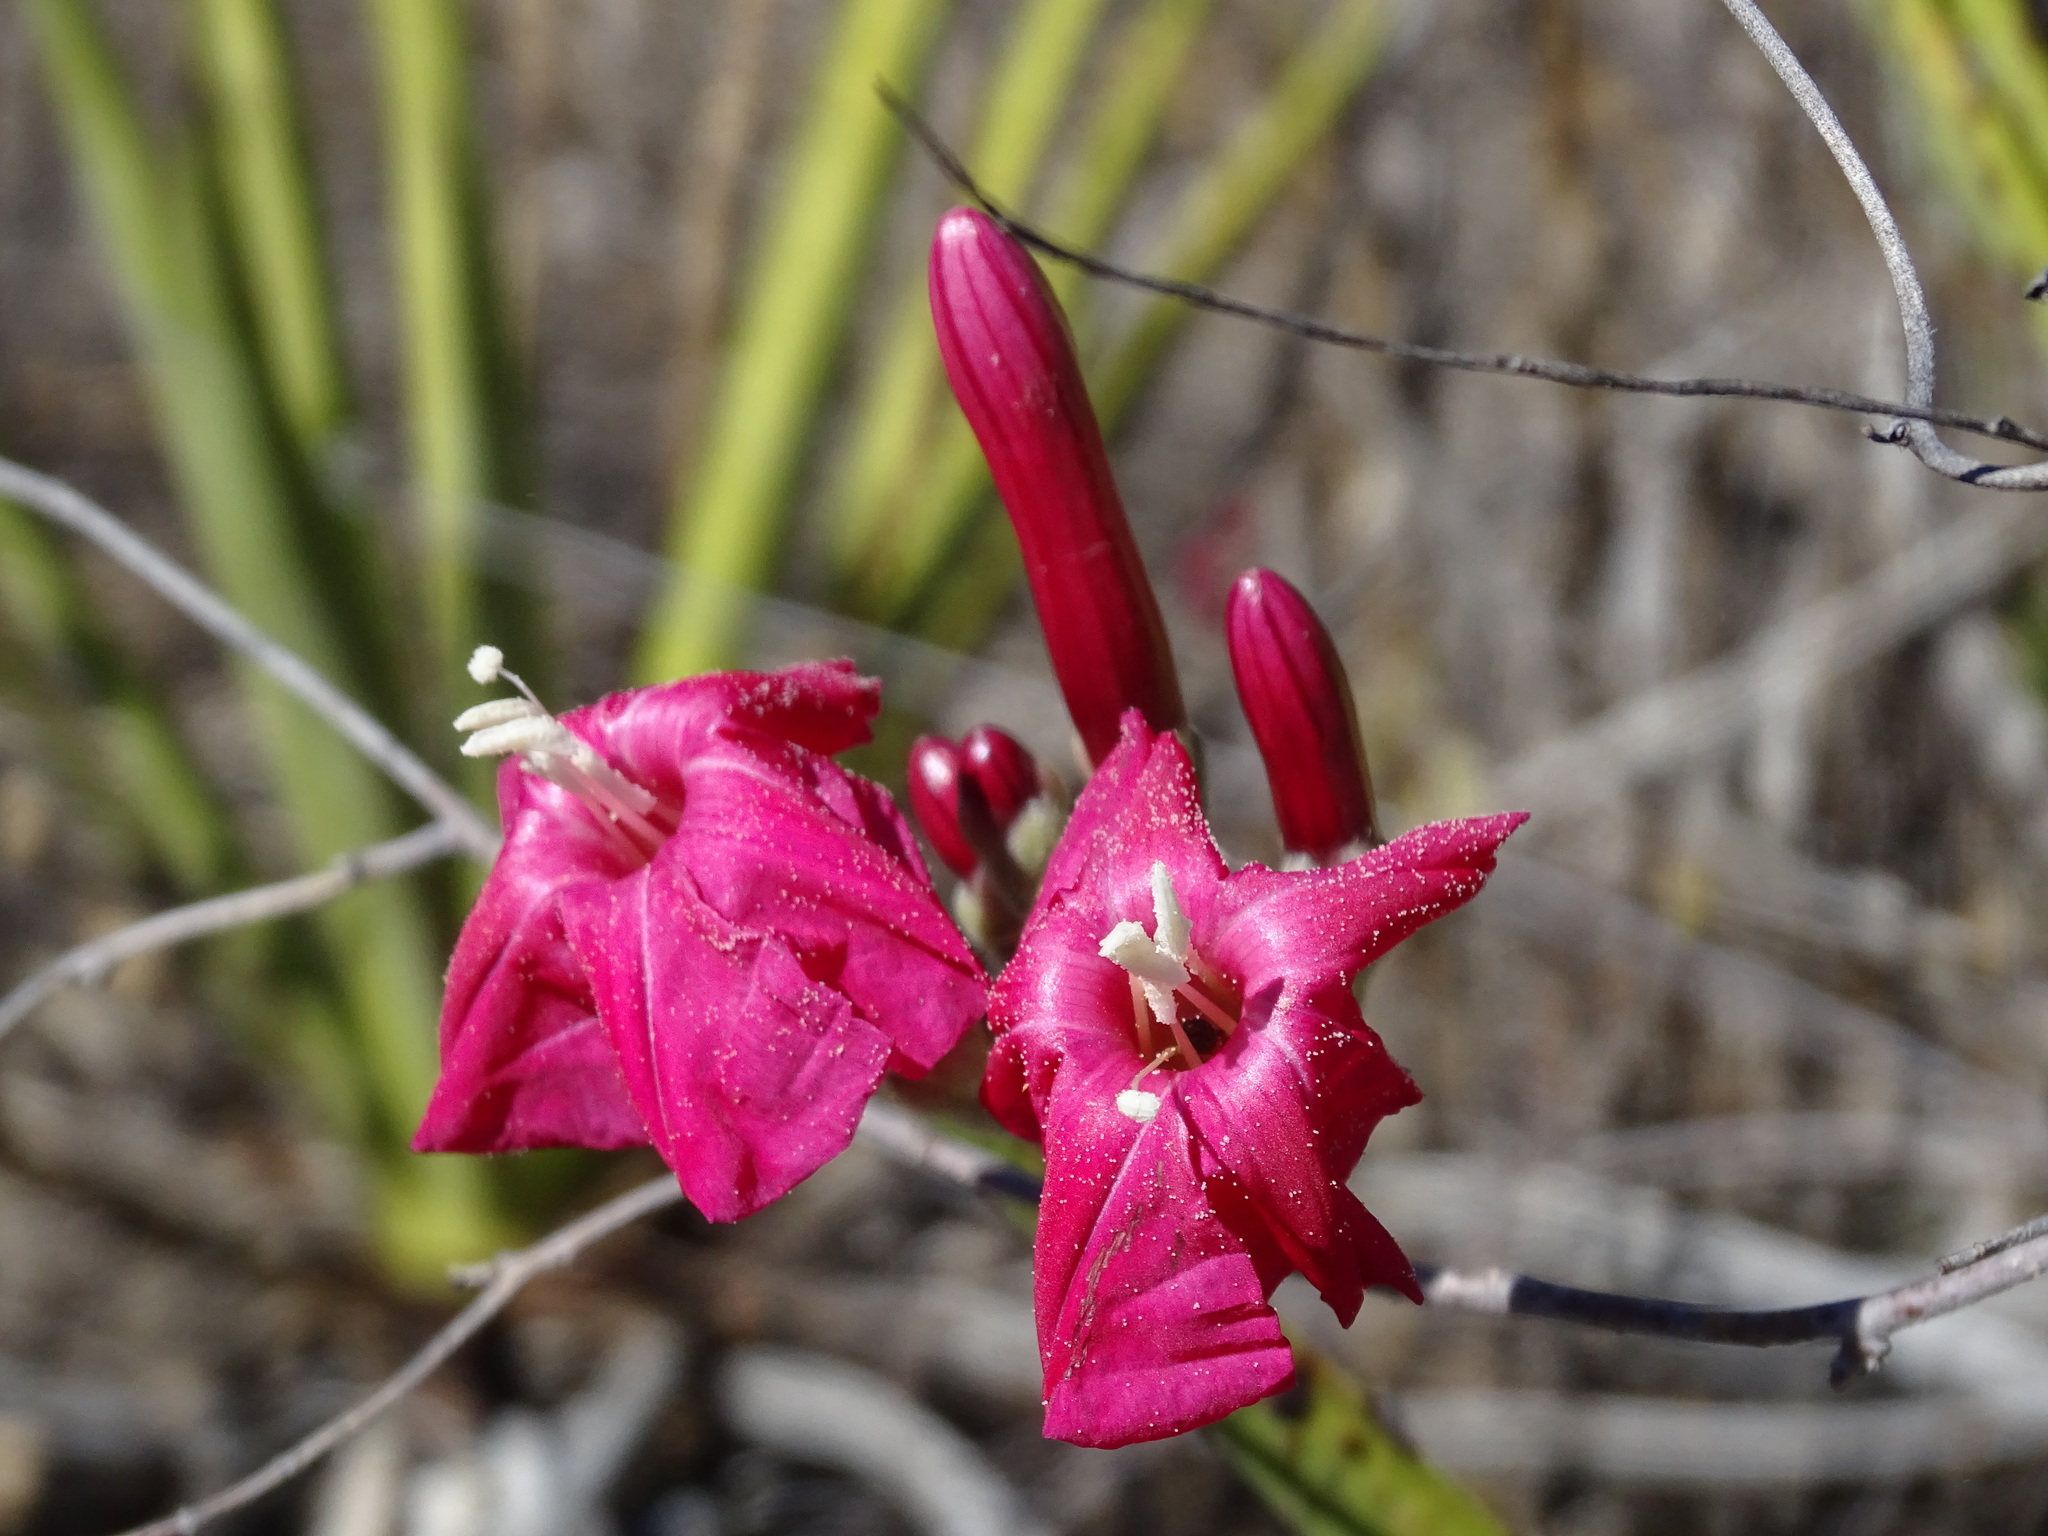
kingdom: Plantae
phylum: Tracheophyta
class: Magnoliopsida
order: Solanales
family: Convolvulaceae
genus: Ipomoea
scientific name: Ipomoea conzattii
